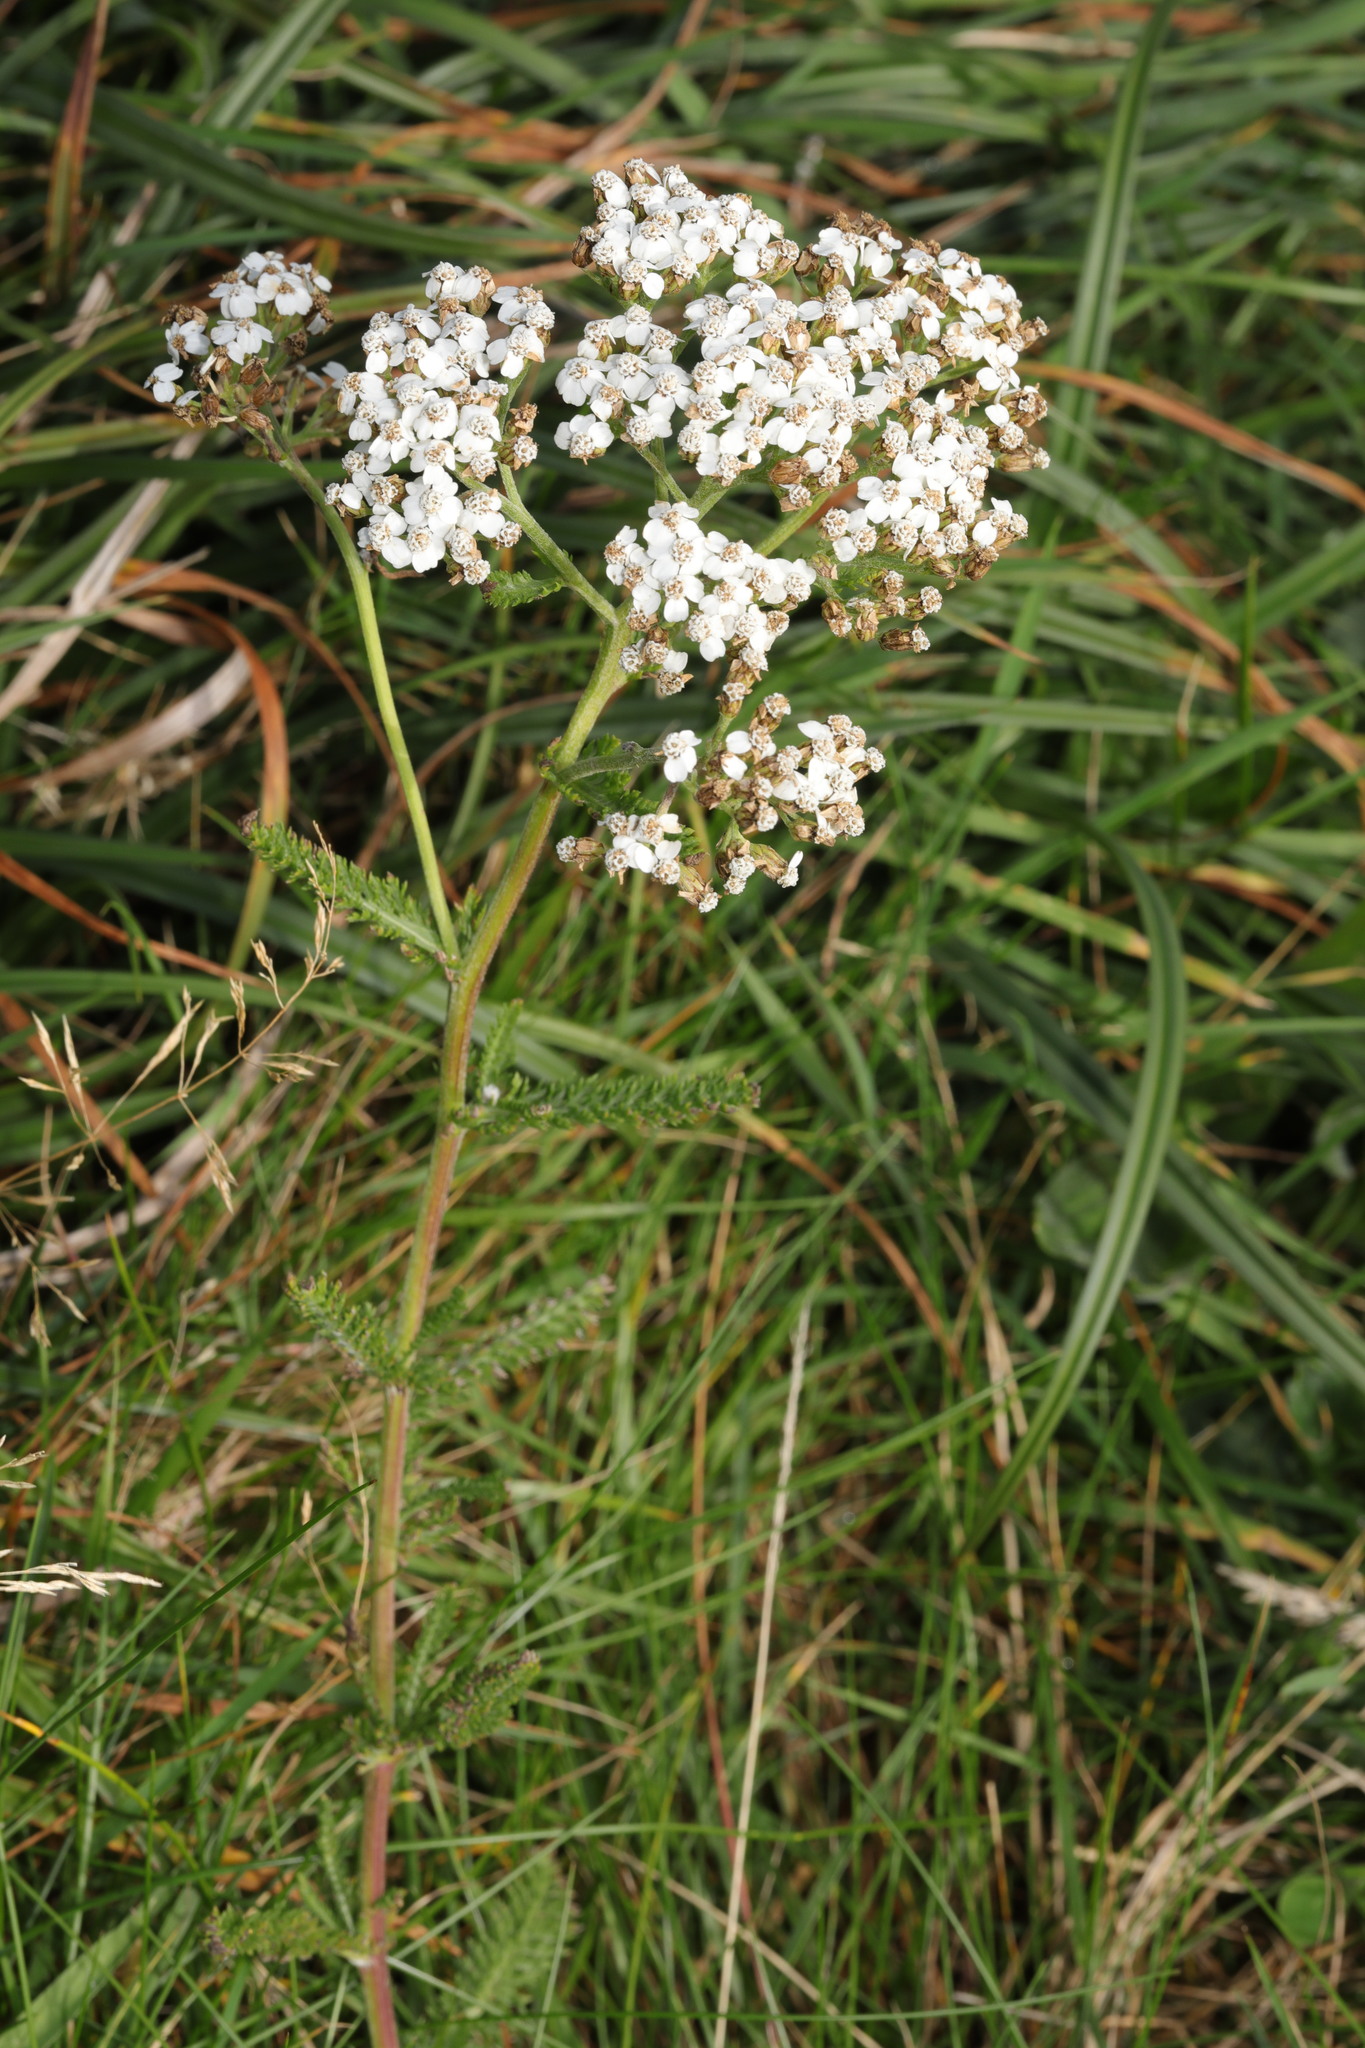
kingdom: Plantae
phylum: Tracheophyta
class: Magnoliopsida
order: Asterales
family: Asteraceae
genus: Achillea
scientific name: Achillea millefolium
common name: Yarrow
